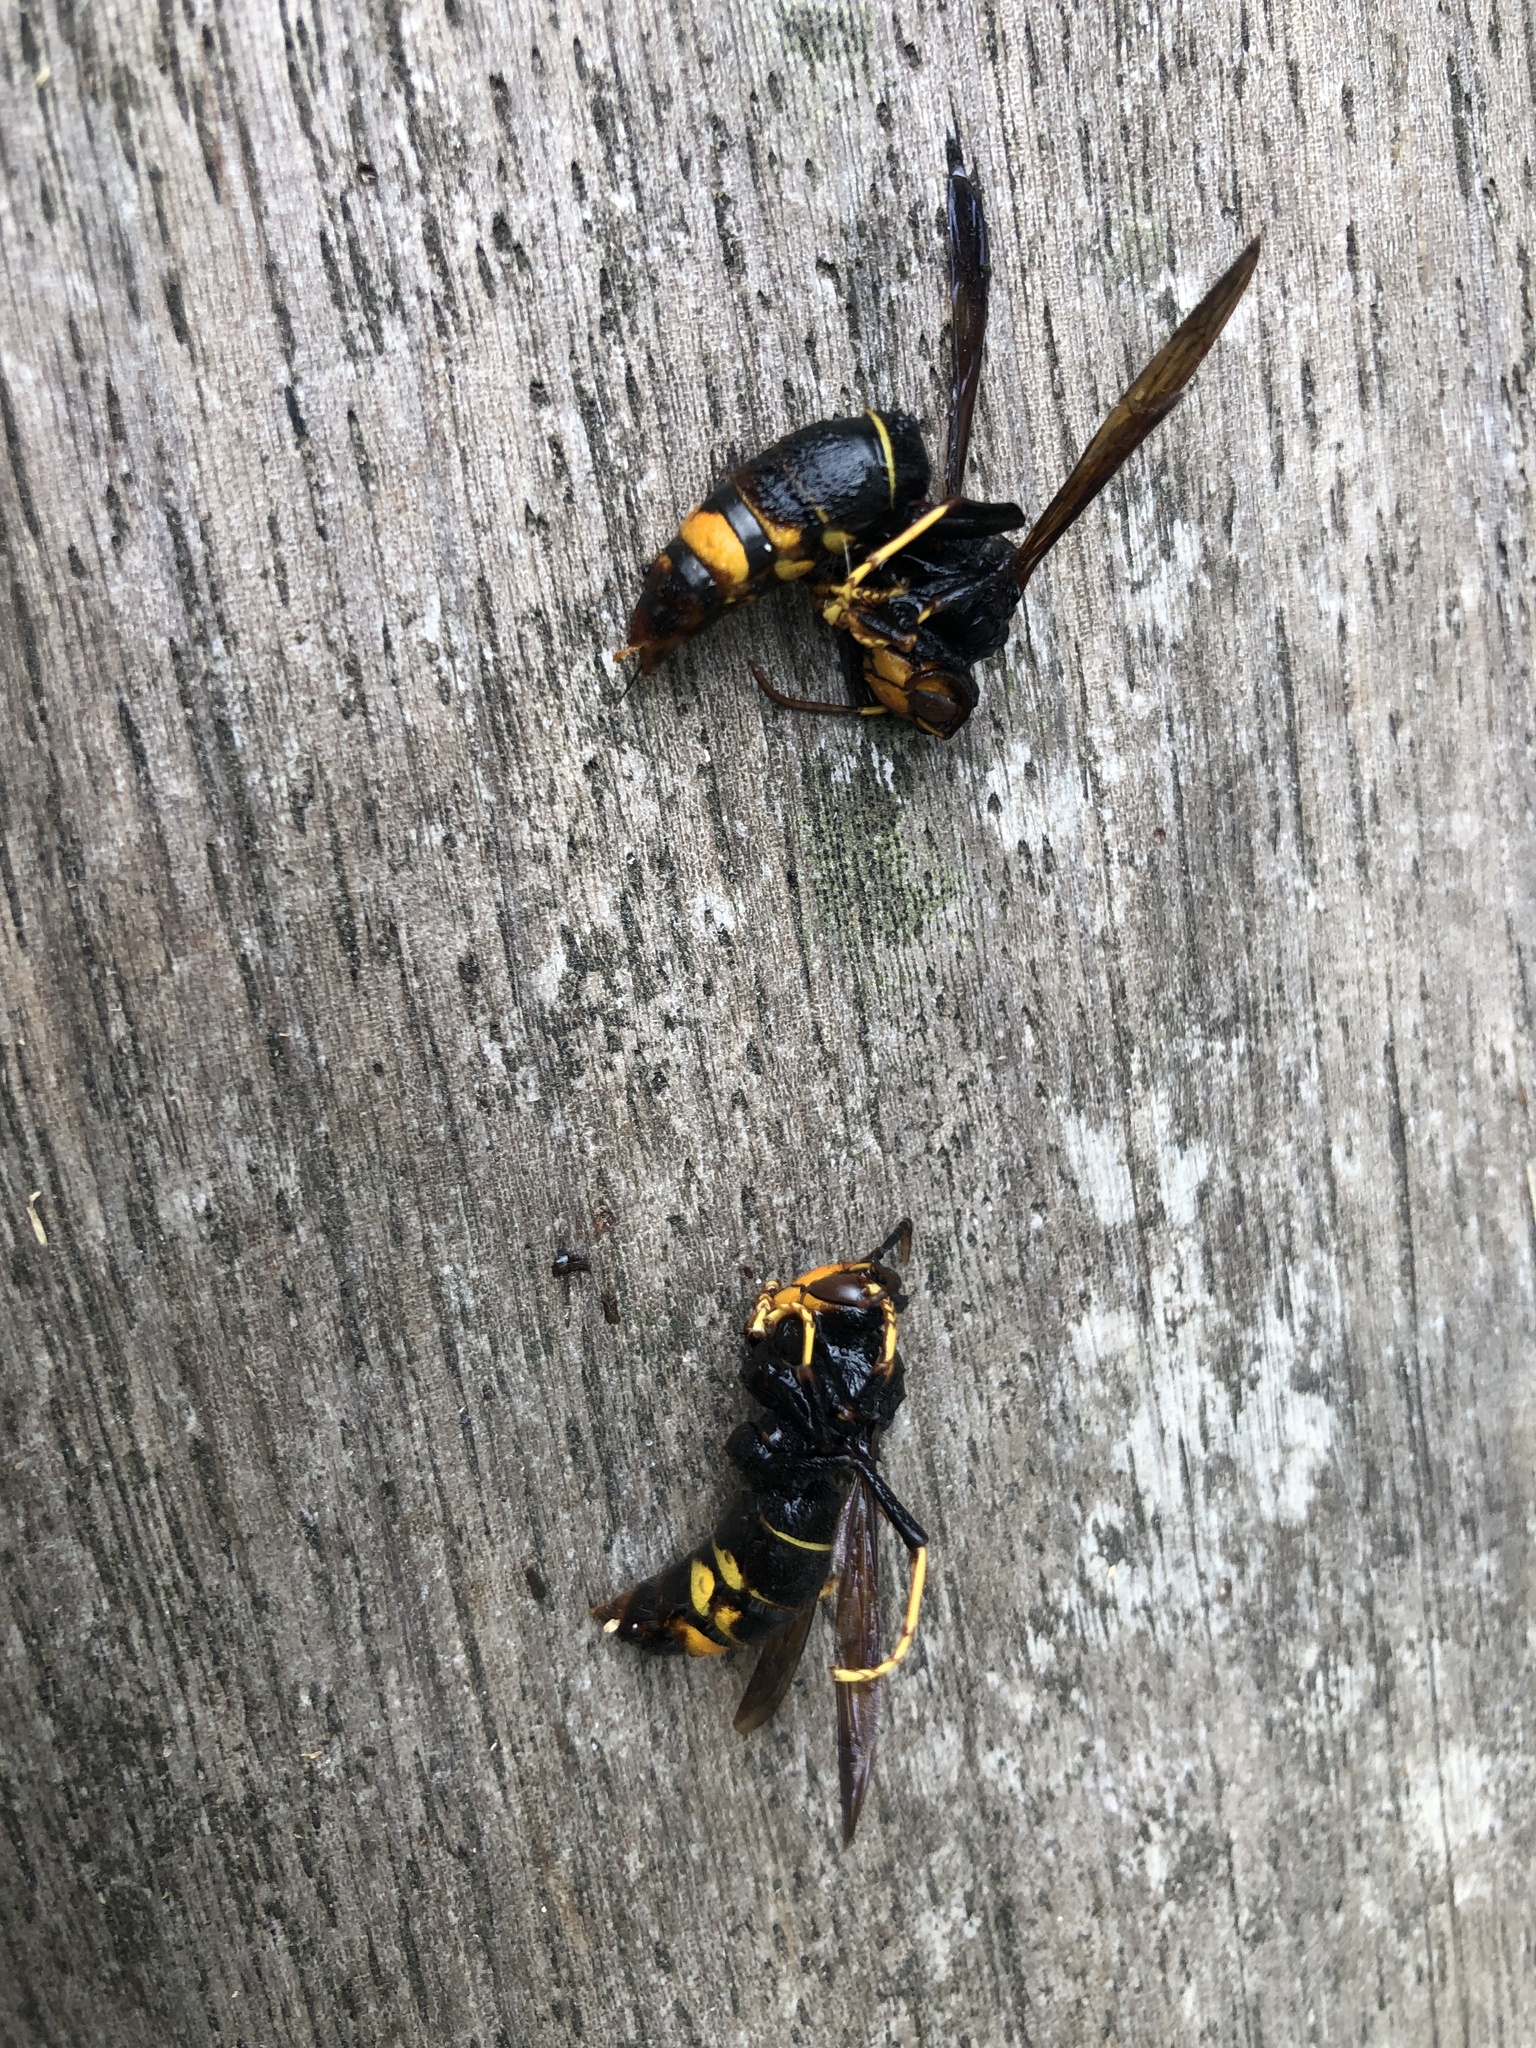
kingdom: Animalia
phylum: Arthropoda
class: Insecta
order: Hymenoptera
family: Vespidae
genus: Vespa
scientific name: Vespa velutina
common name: Asian hornet
